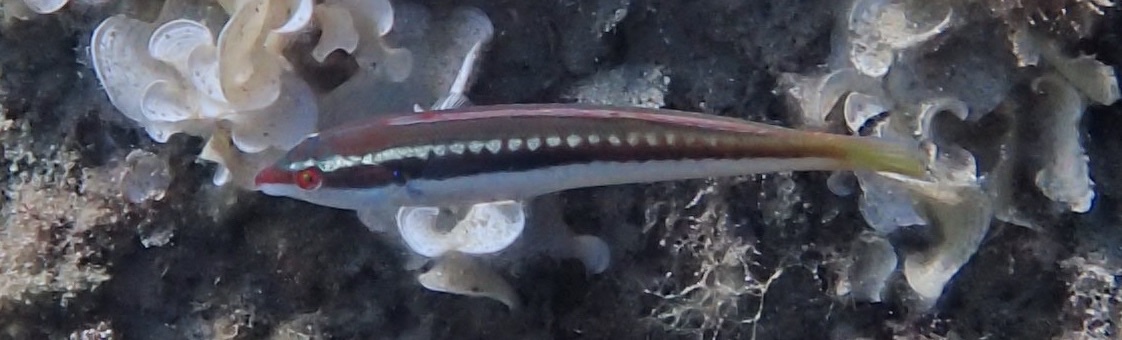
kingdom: Animalia
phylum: Chordata
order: Perciformes
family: Labridae
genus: Coris
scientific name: Coris julis
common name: Rainbow wrasse
